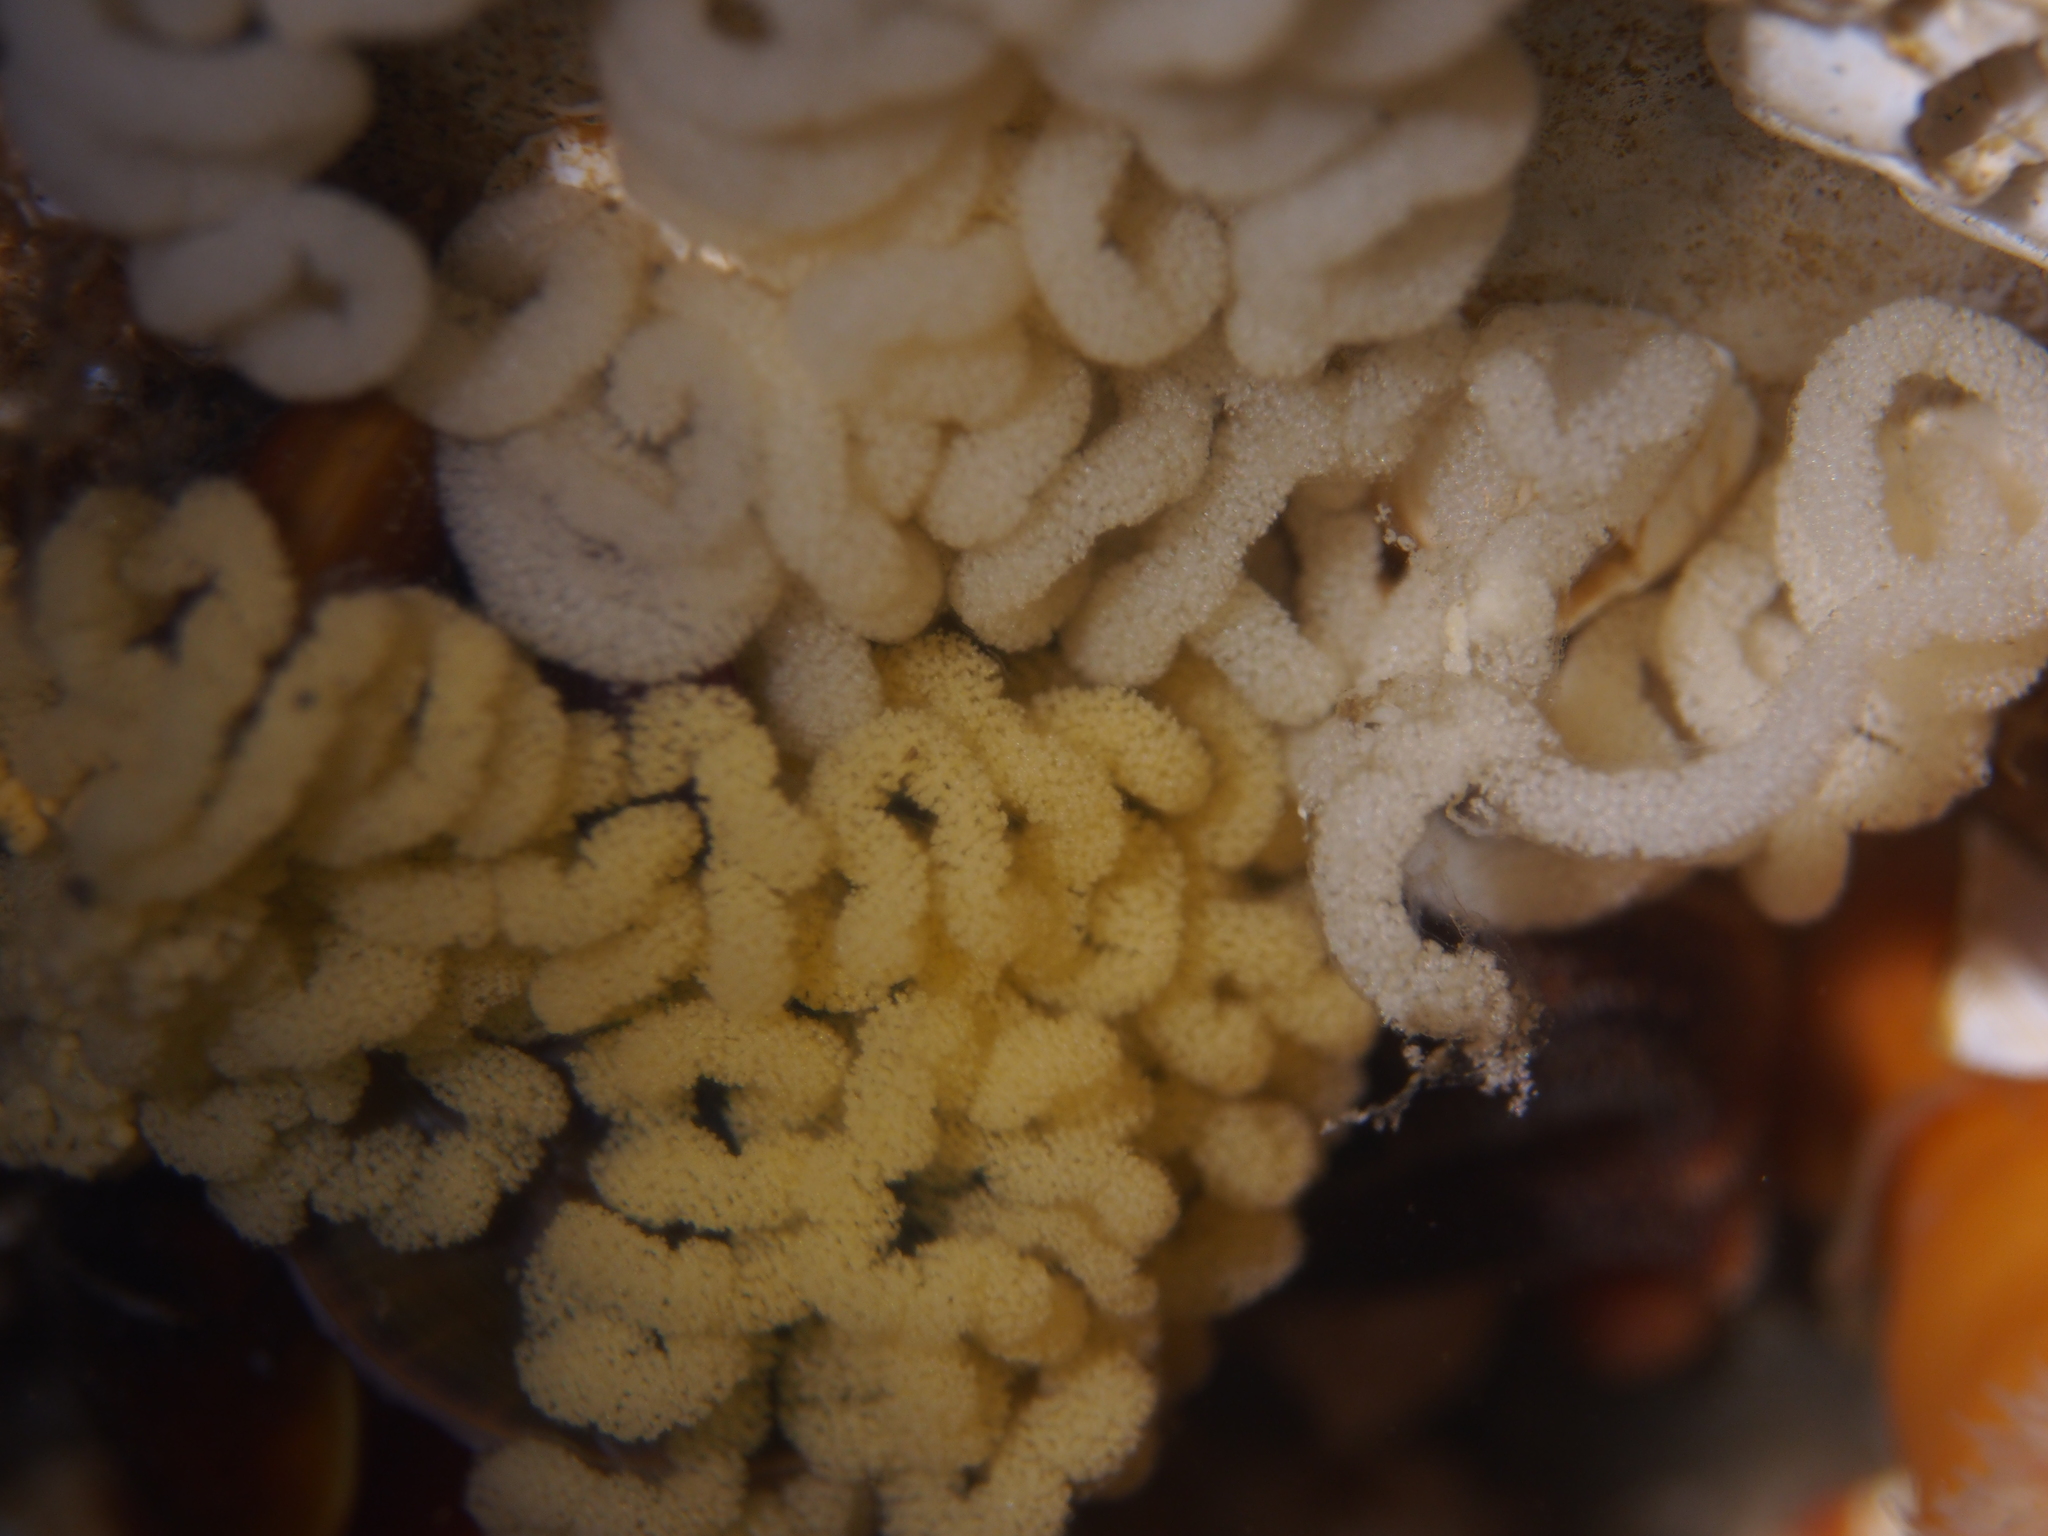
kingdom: Animalia
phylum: Mollusca
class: Gastropoda
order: Nudibranchia
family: Dendronotidae
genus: Dendronotus
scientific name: Dendronotus lacteus
